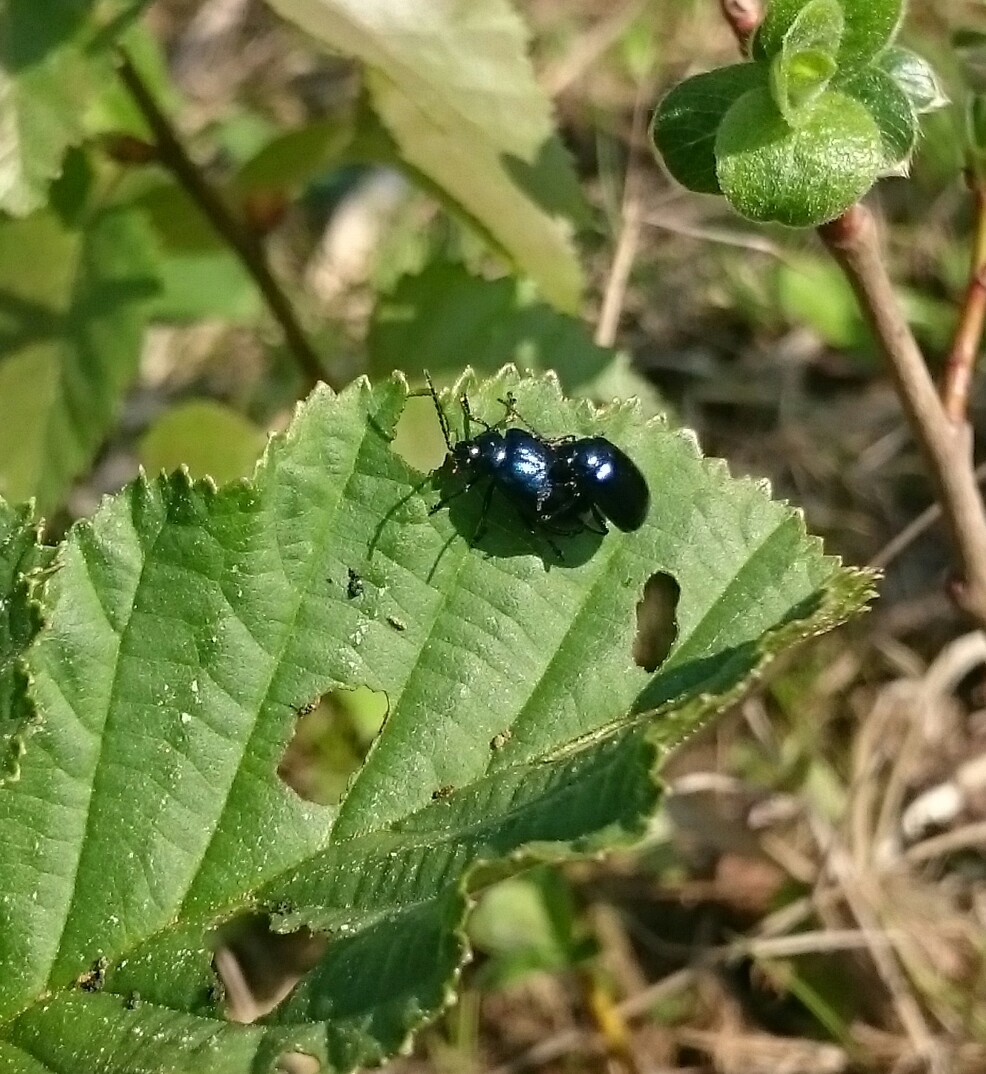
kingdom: Animalia
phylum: Arthropoda
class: Insecta
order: Coleoptera
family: Chrysomelidae
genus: Agelastica
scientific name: Agelastica alni
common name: Alder leaf beetle
